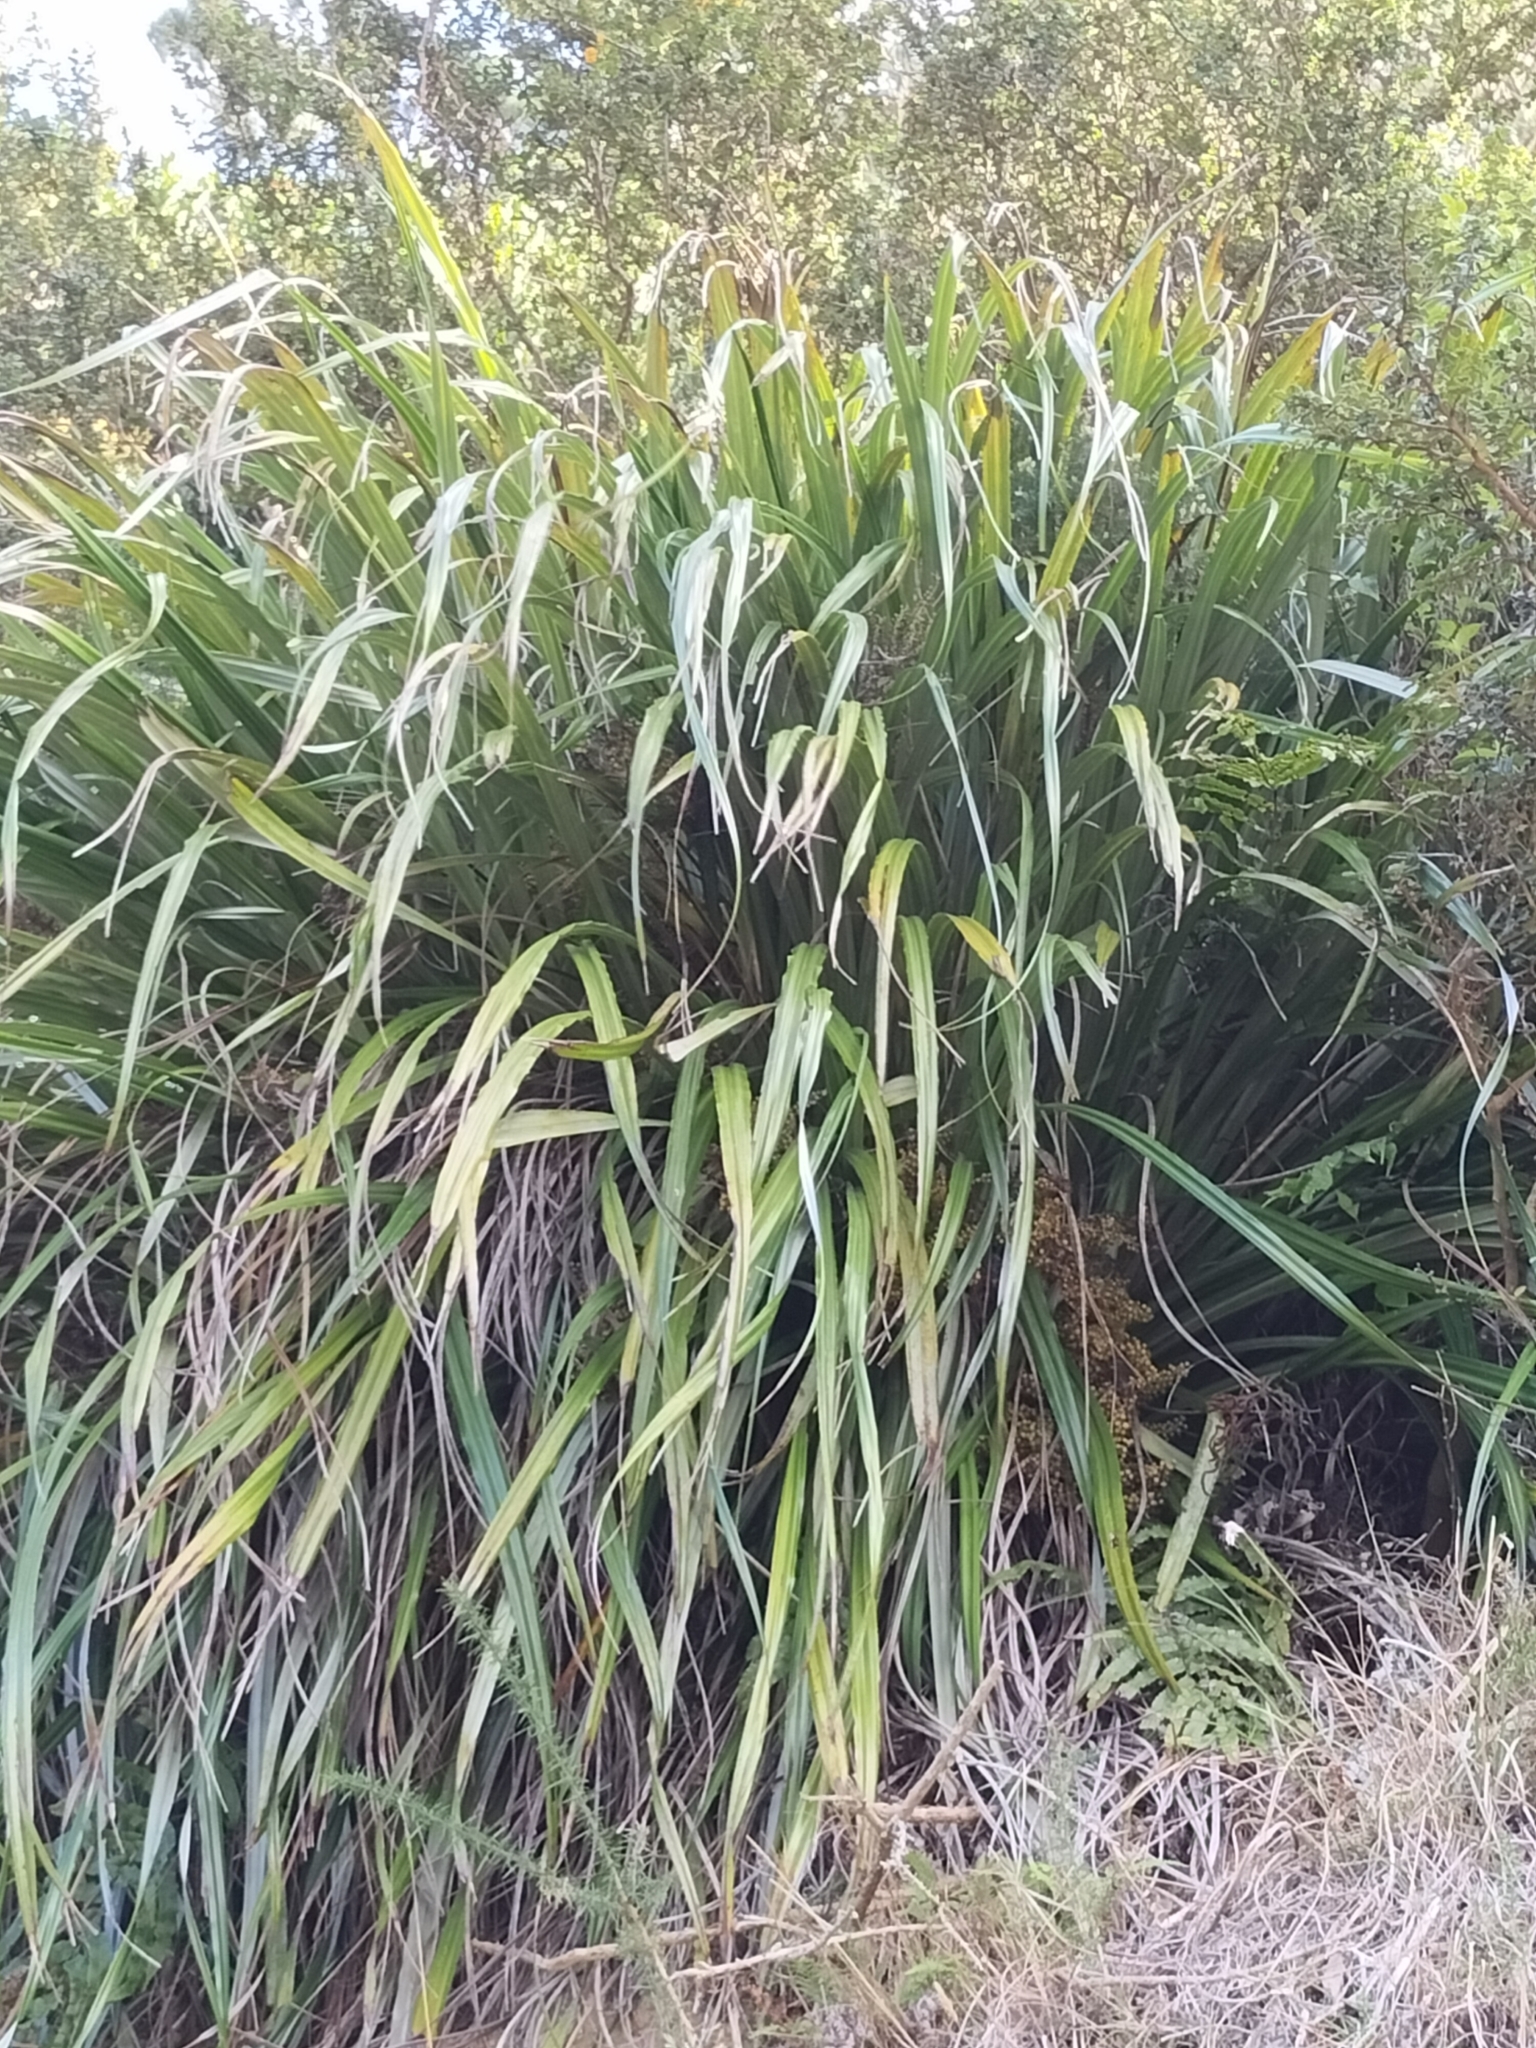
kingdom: Plantae
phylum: Tracheophyta
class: Liliopsida
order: Asparagales
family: Asteliaceae
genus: Astelia
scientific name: Astelia solandri
